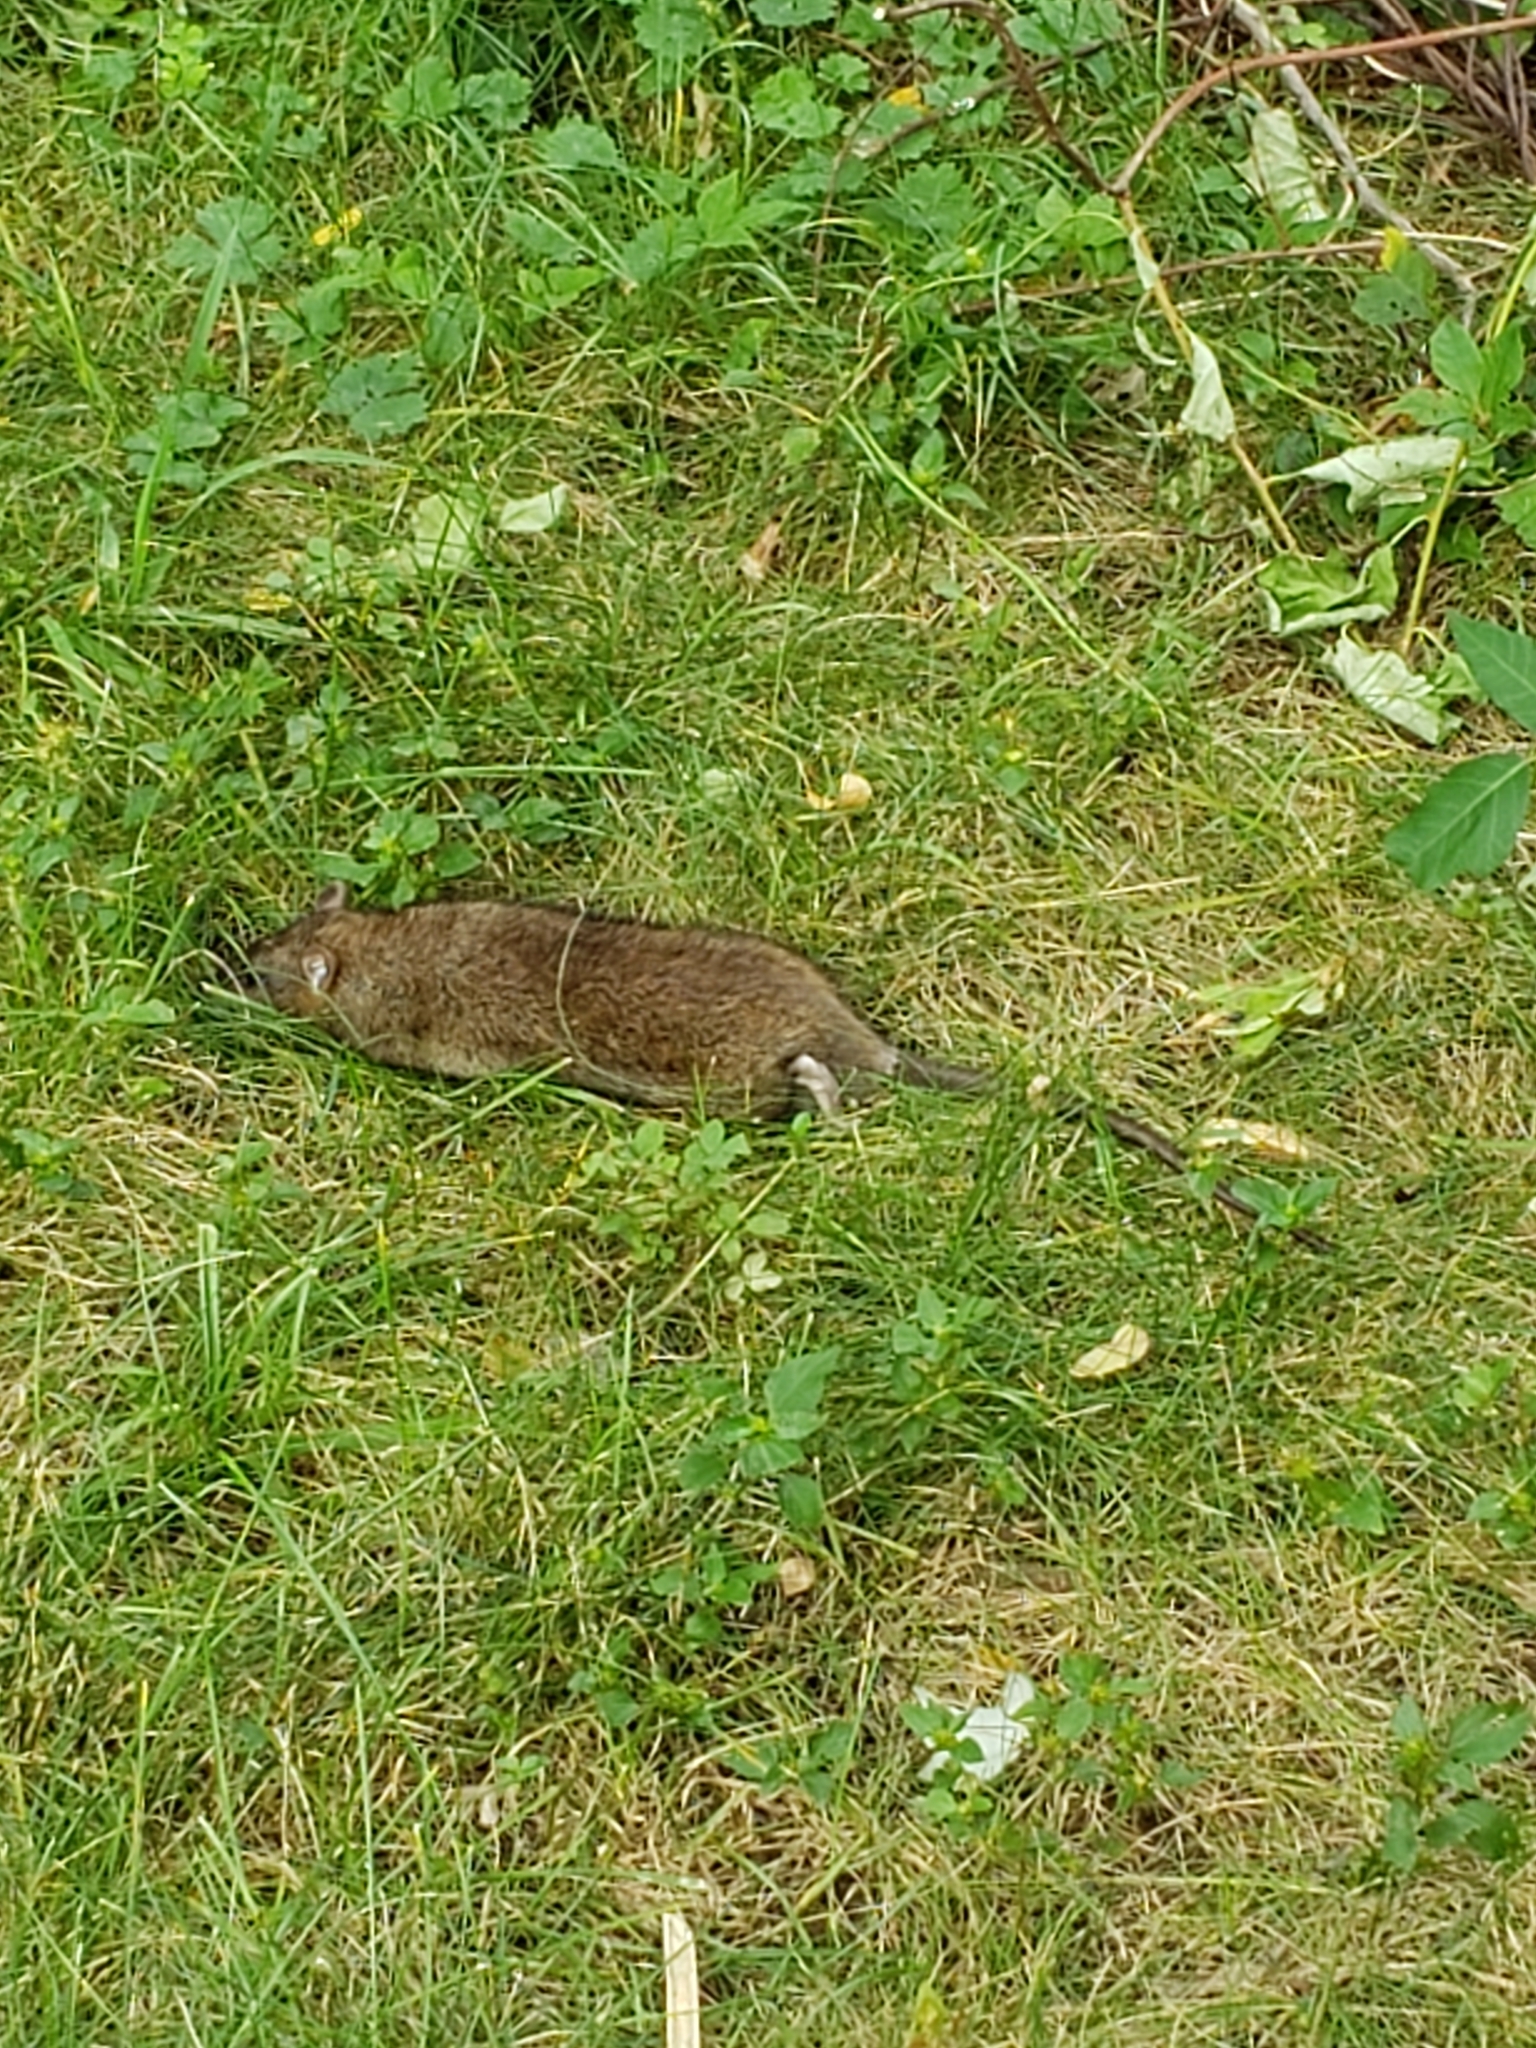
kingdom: Animalia
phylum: Chordata
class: Mammalia
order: Rodentia
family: Muridae
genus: Rattus
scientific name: Rattus norvegicus
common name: Brown rat
